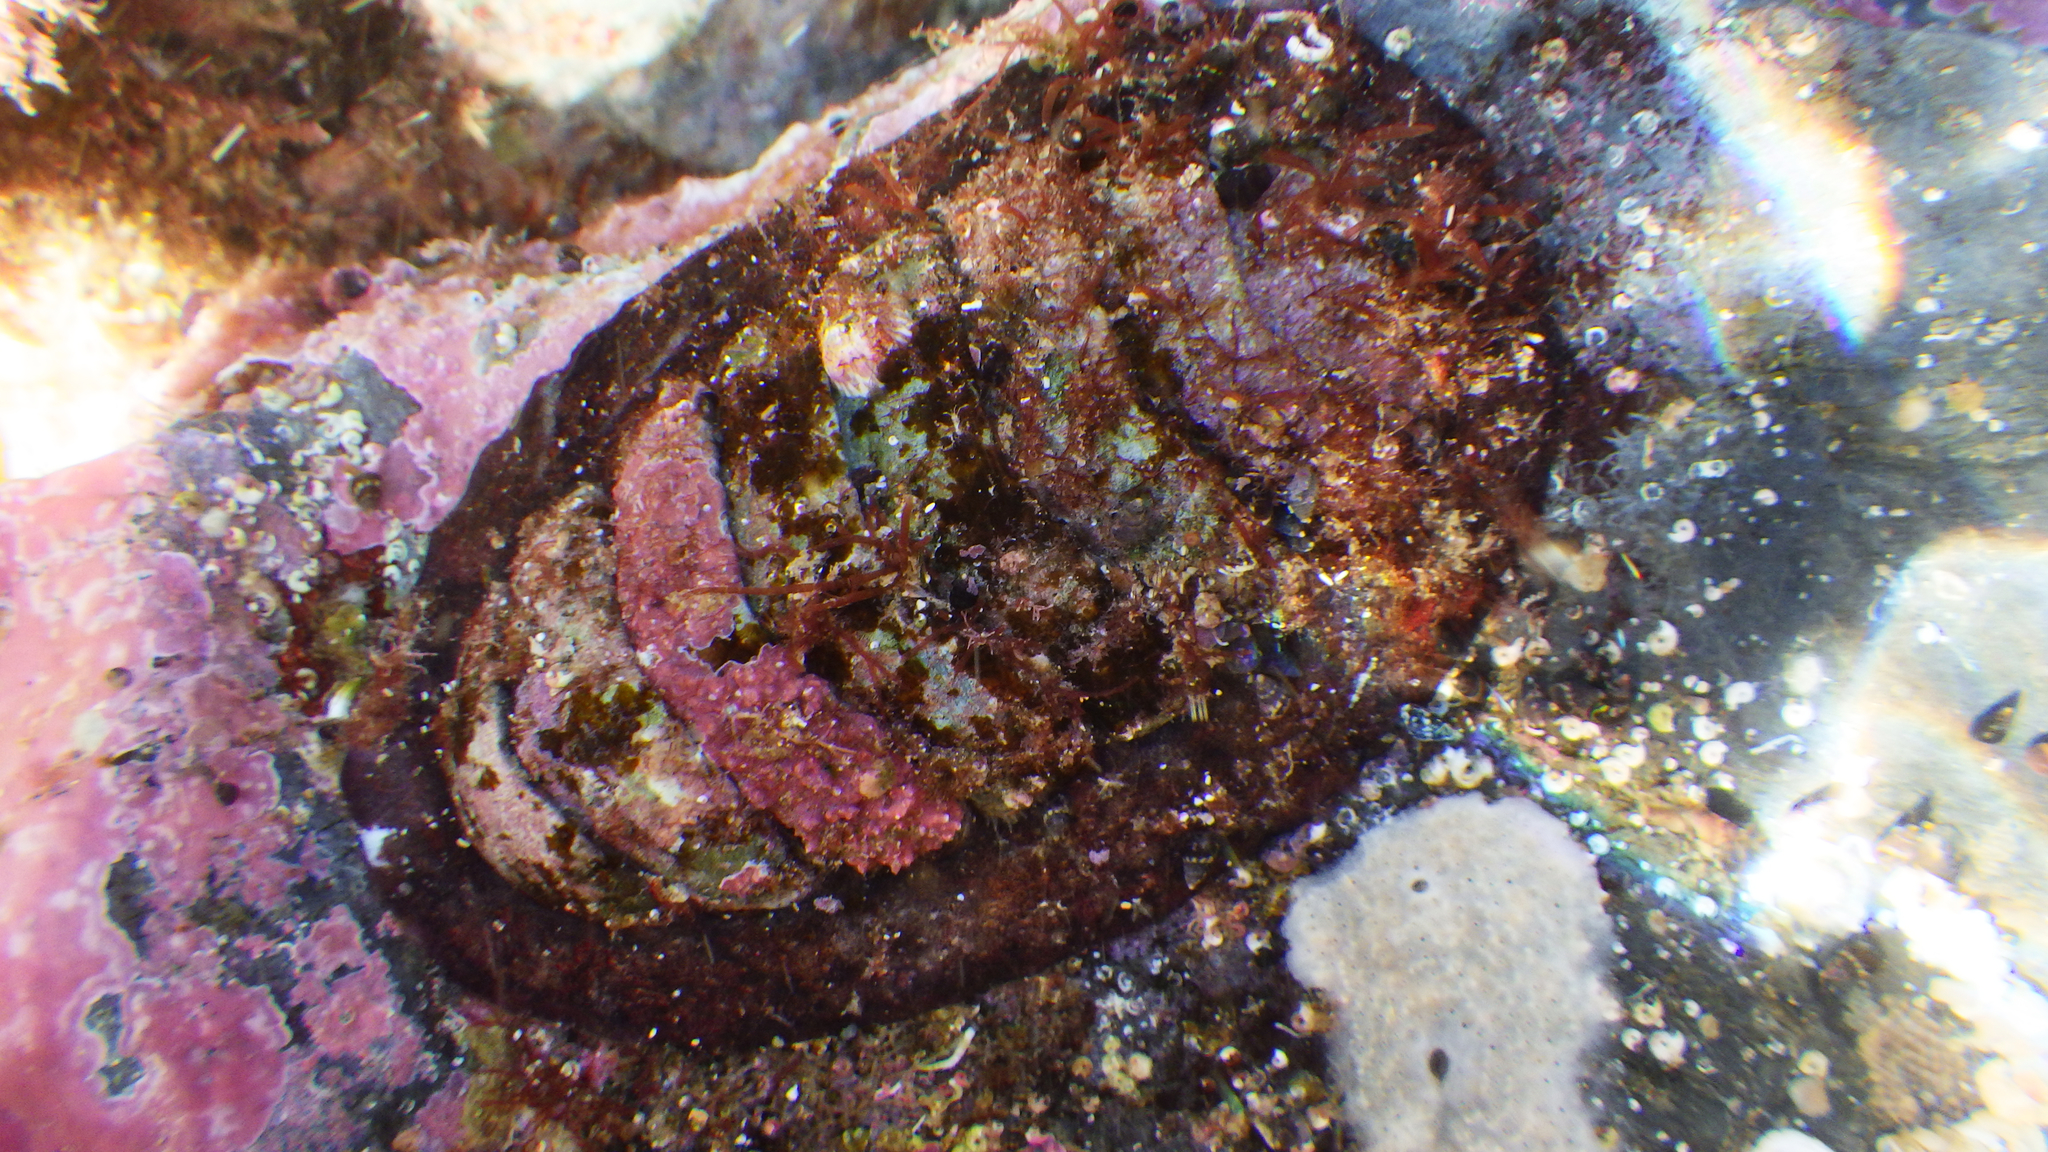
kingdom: Animalia
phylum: Mollusca
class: Polyplacophora
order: Callochitonida
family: Callochitonidae
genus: Eudoxochiton
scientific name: Eudoxochiton nobilis
